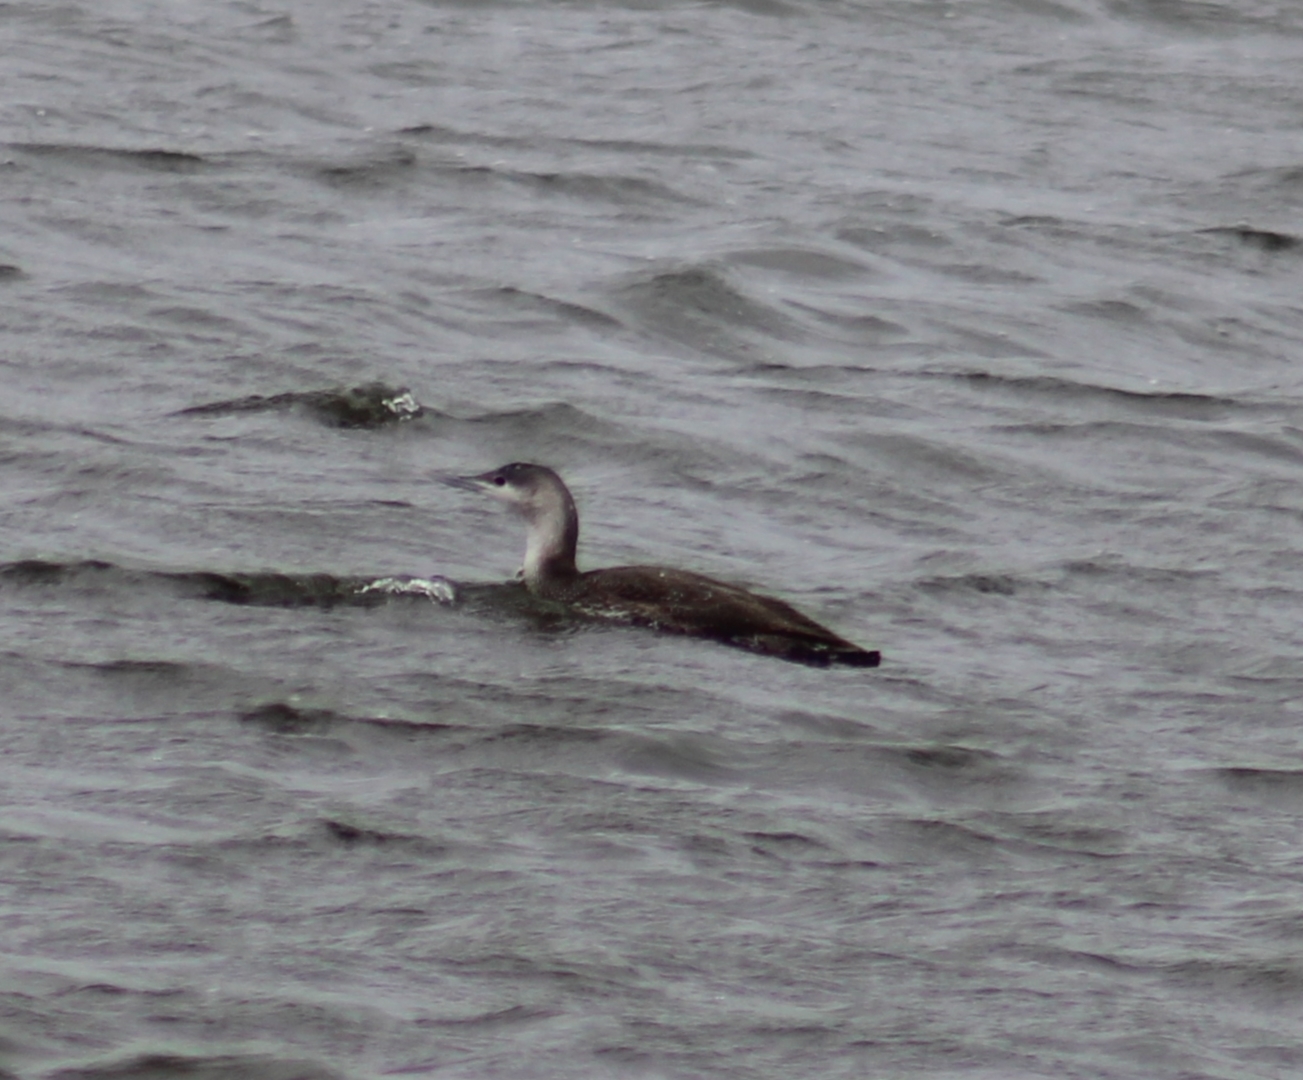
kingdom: Animalia
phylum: Chordata
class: Aves
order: Gaviiformes
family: Gaviidae
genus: Gavia
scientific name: Gavia stellata
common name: Red-throated loon
